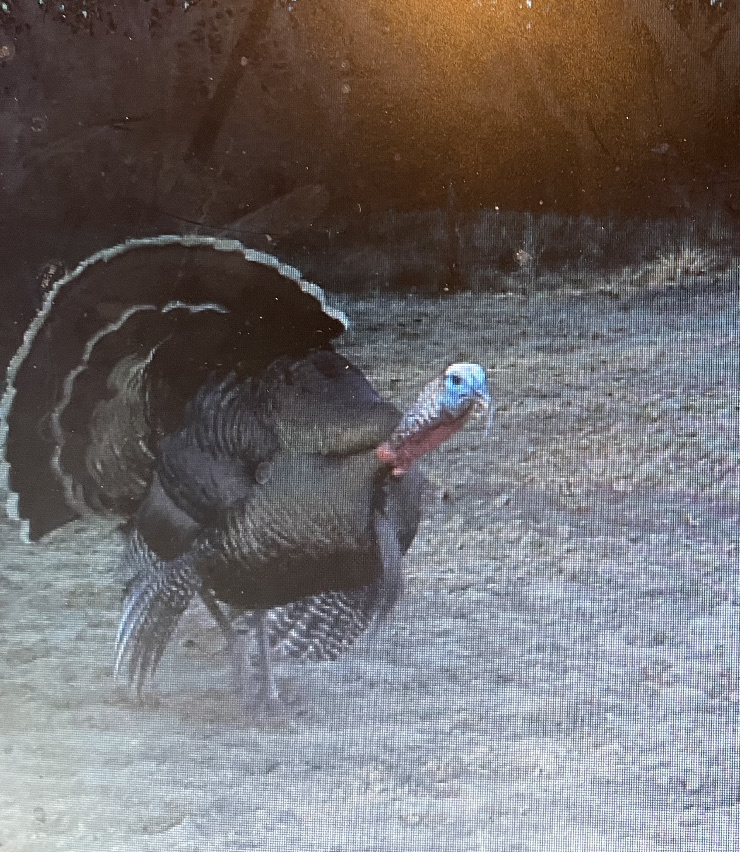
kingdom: Animalia
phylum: Chordata
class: Aves
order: Galliformes
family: Phasianidae
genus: Meleagris
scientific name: Meleagris gallopavo
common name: Wild turkey
